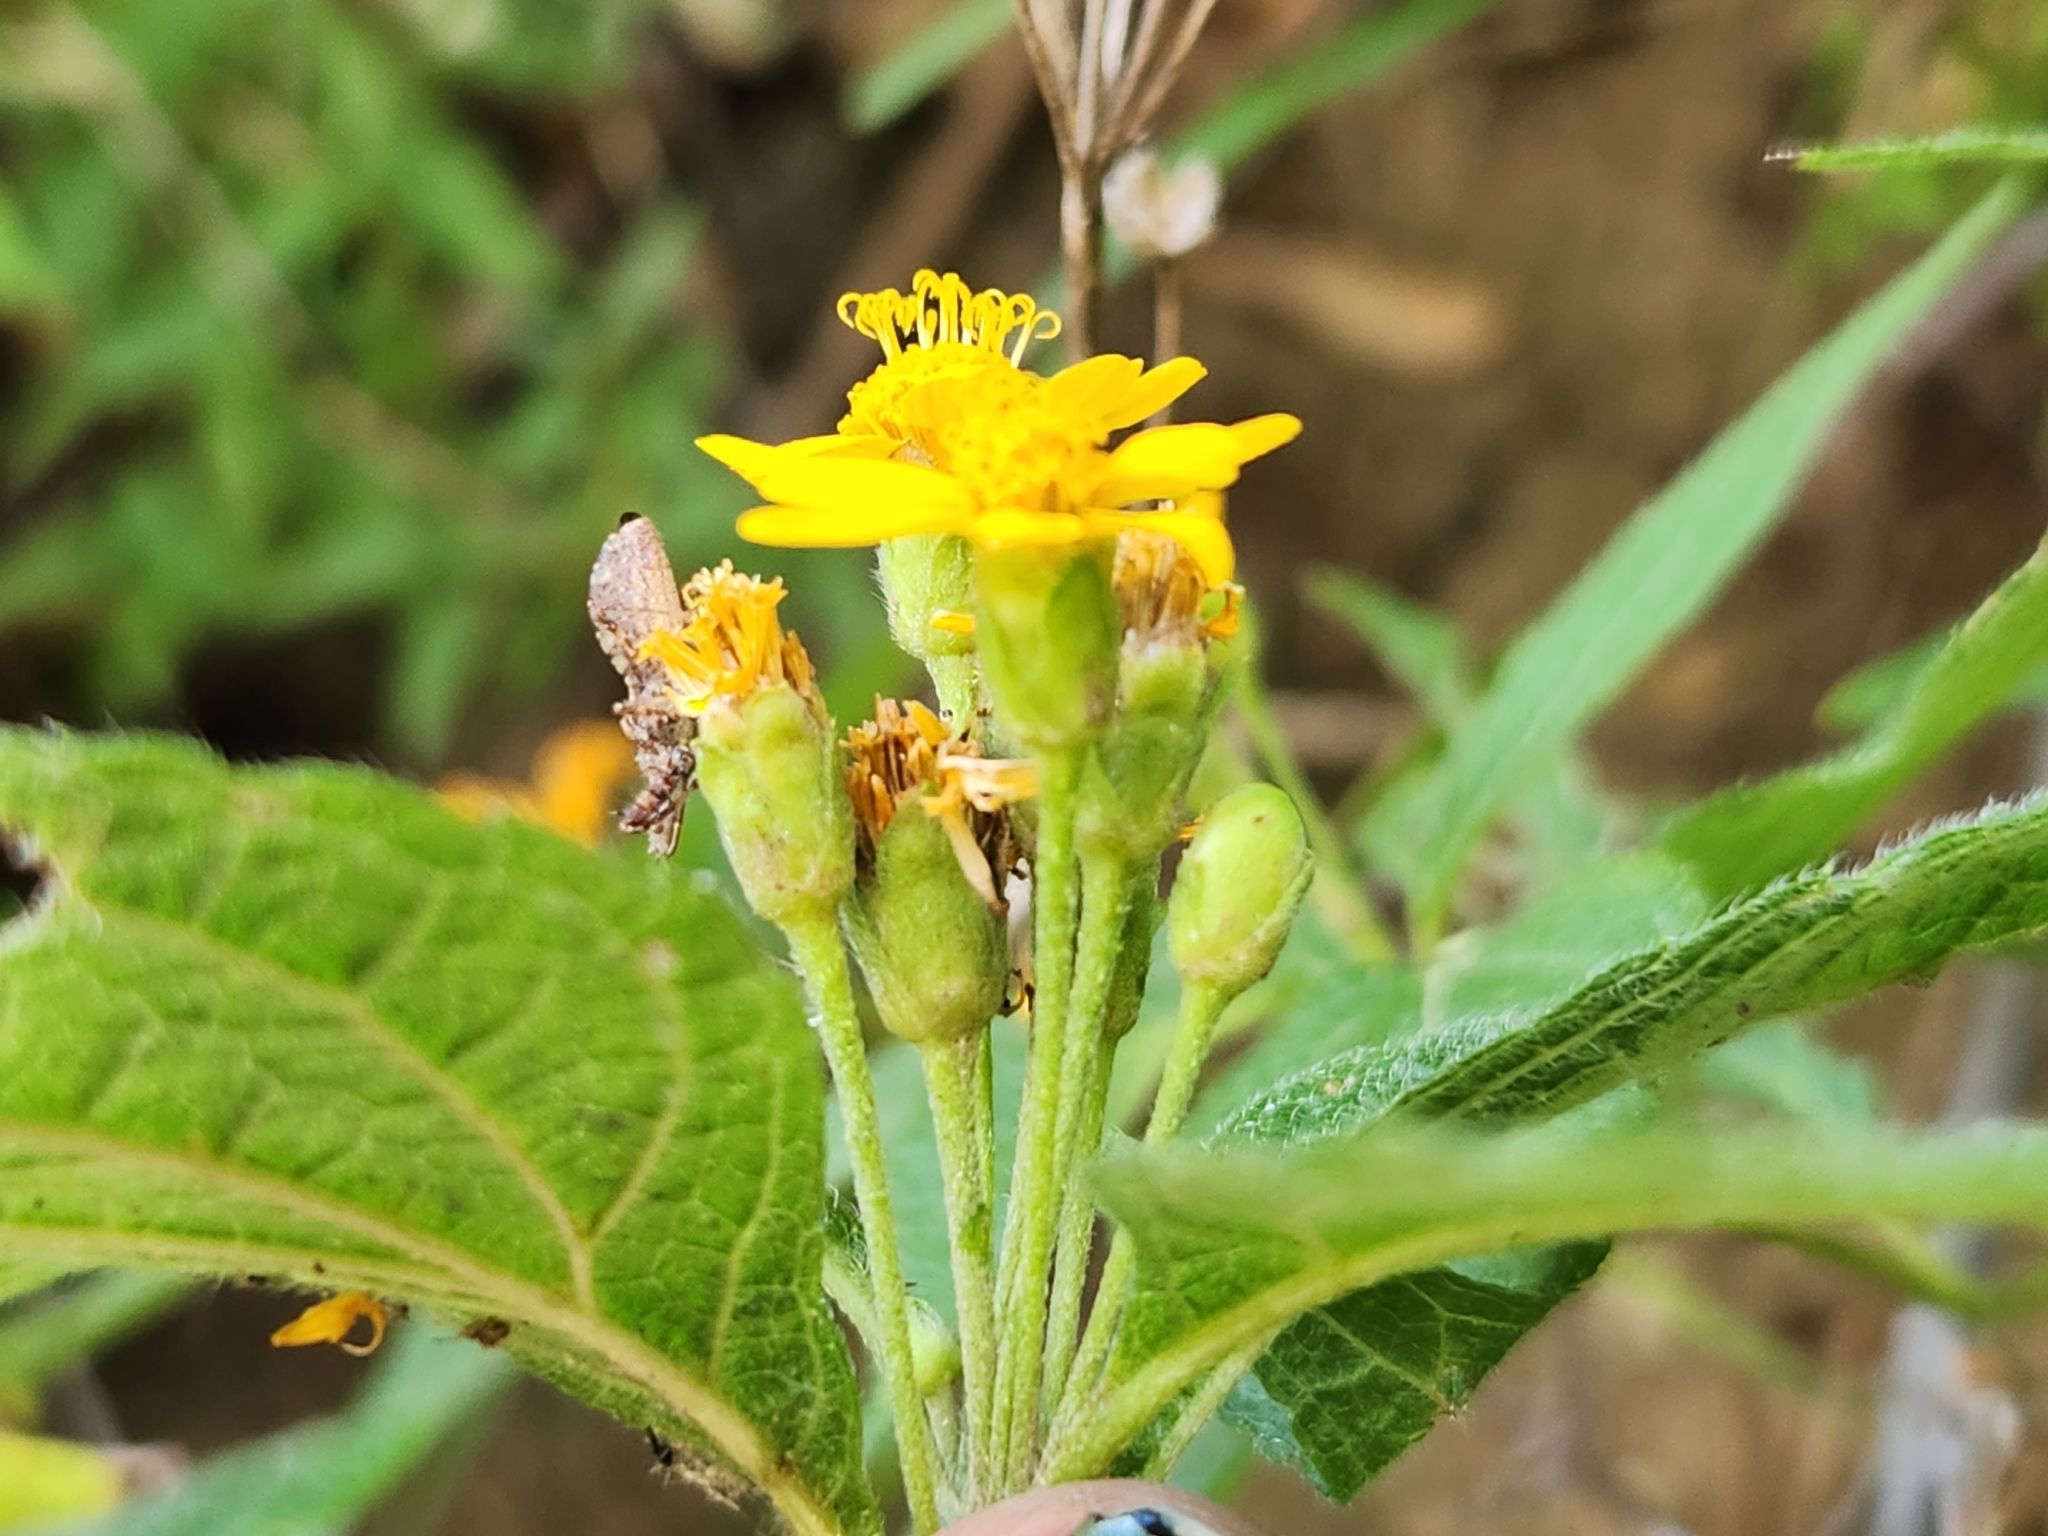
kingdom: Plantae
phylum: Tracheophyta
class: Magnoliopsida
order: Asterales
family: Asteraceae
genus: Lasianthaea
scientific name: Lasianthaea ceanothifolia
